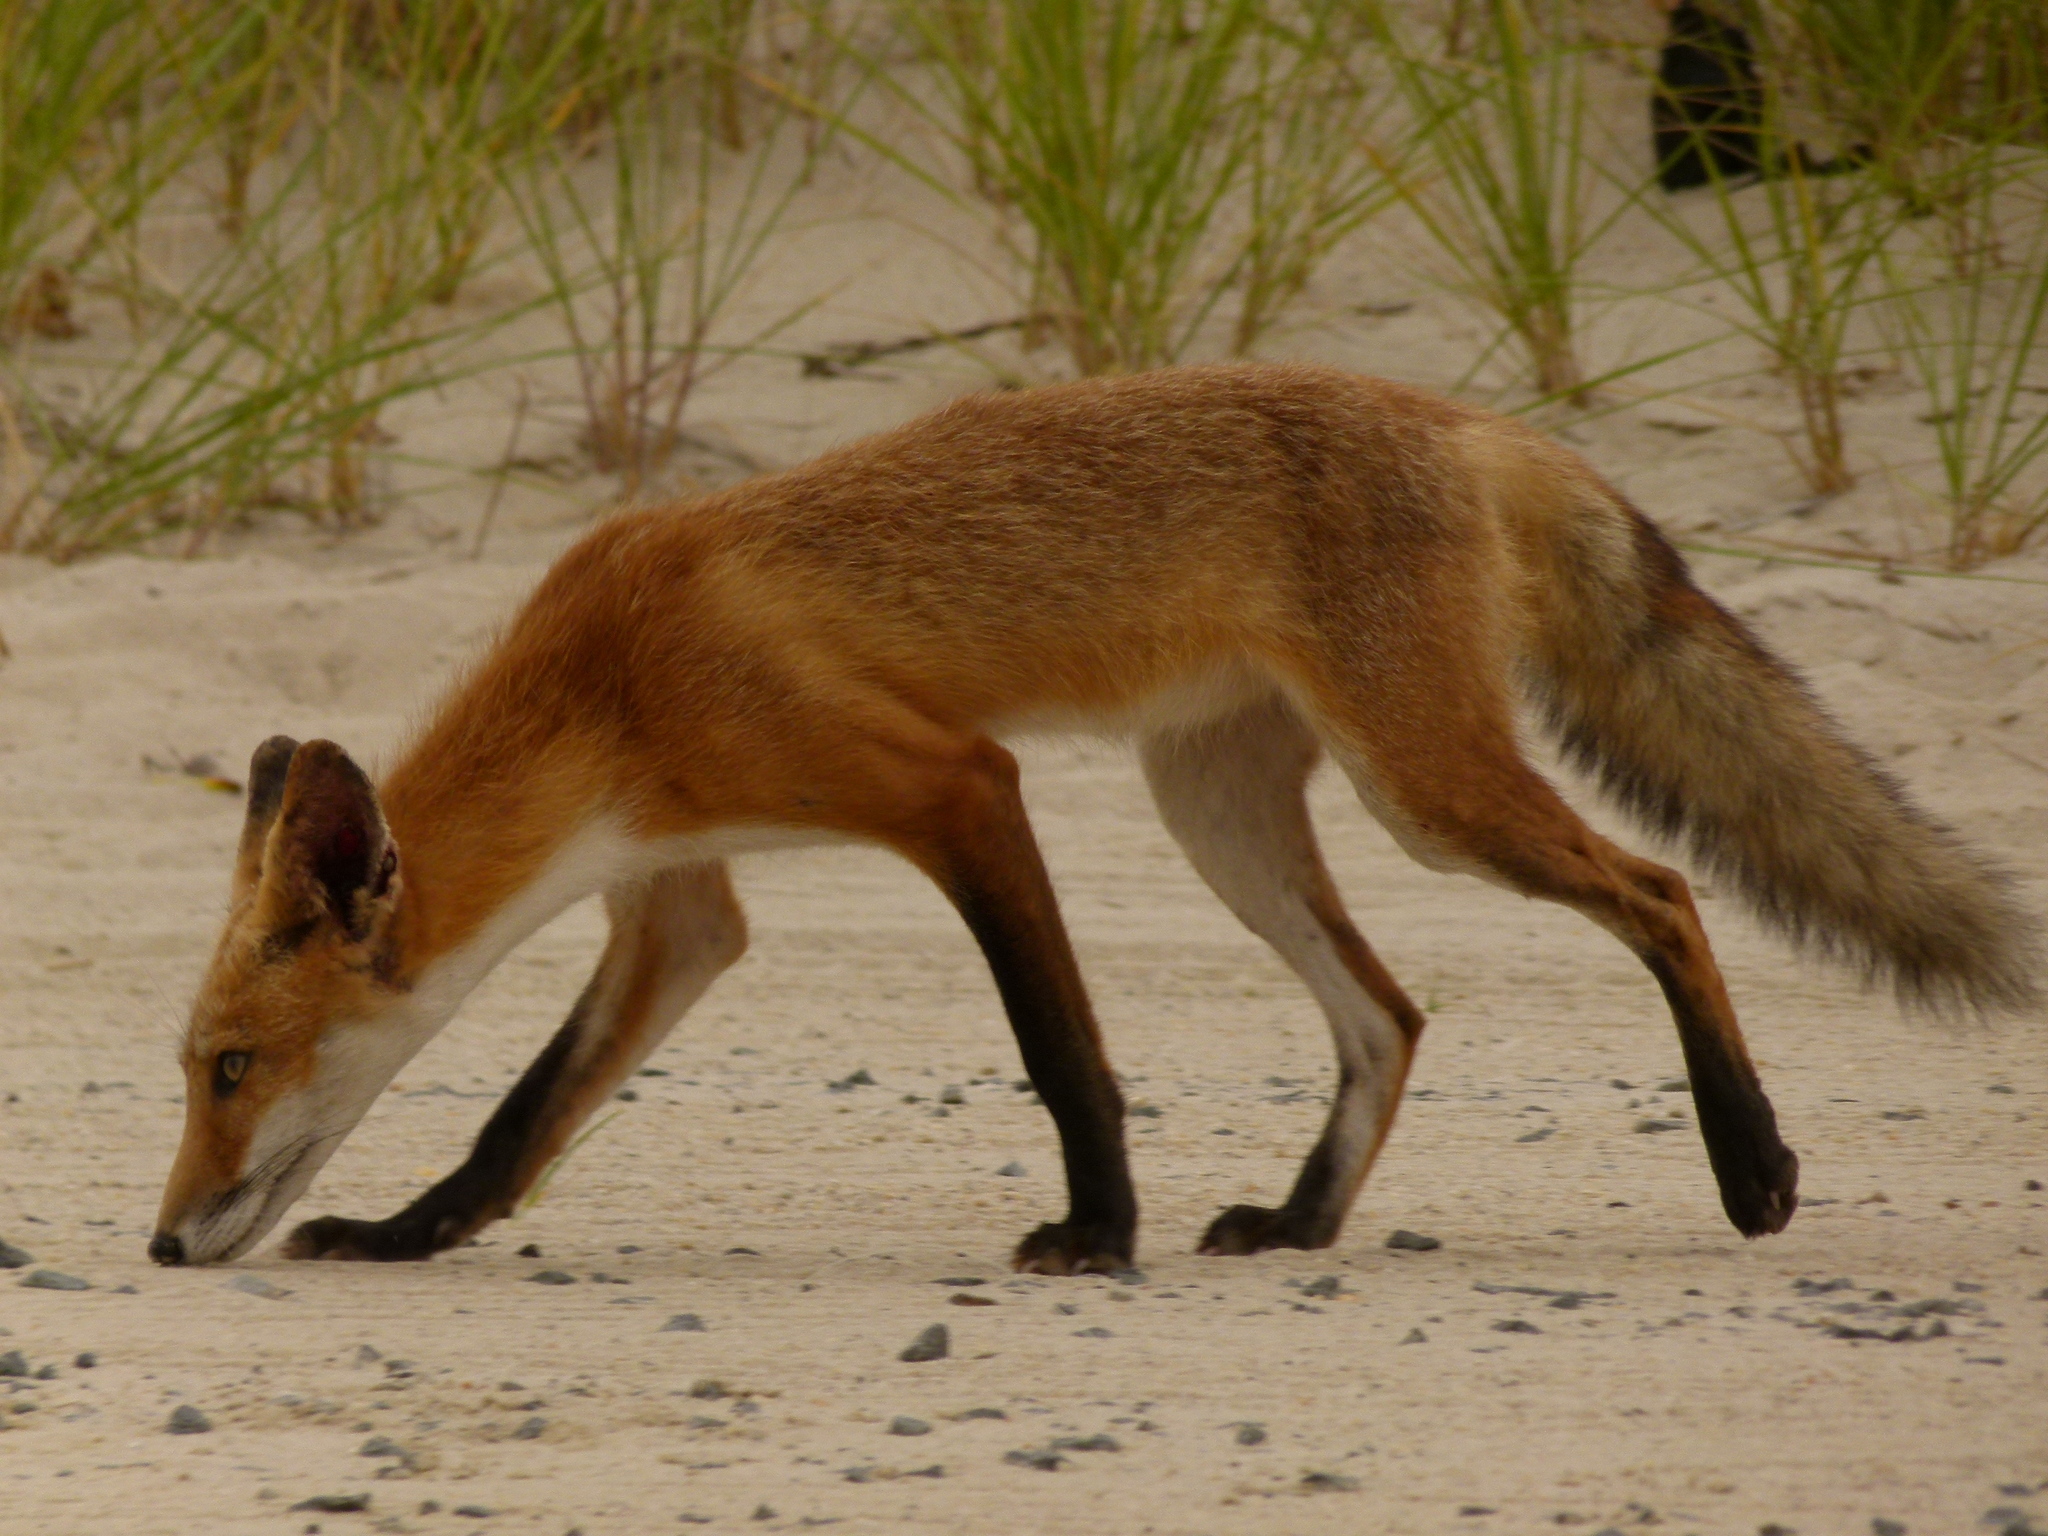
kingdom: Animalia
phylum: Chordata
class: Mammalia
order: Carnivora
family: Canidae
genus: Vulpes
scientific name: Vulpes vulpes
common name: Red fox
